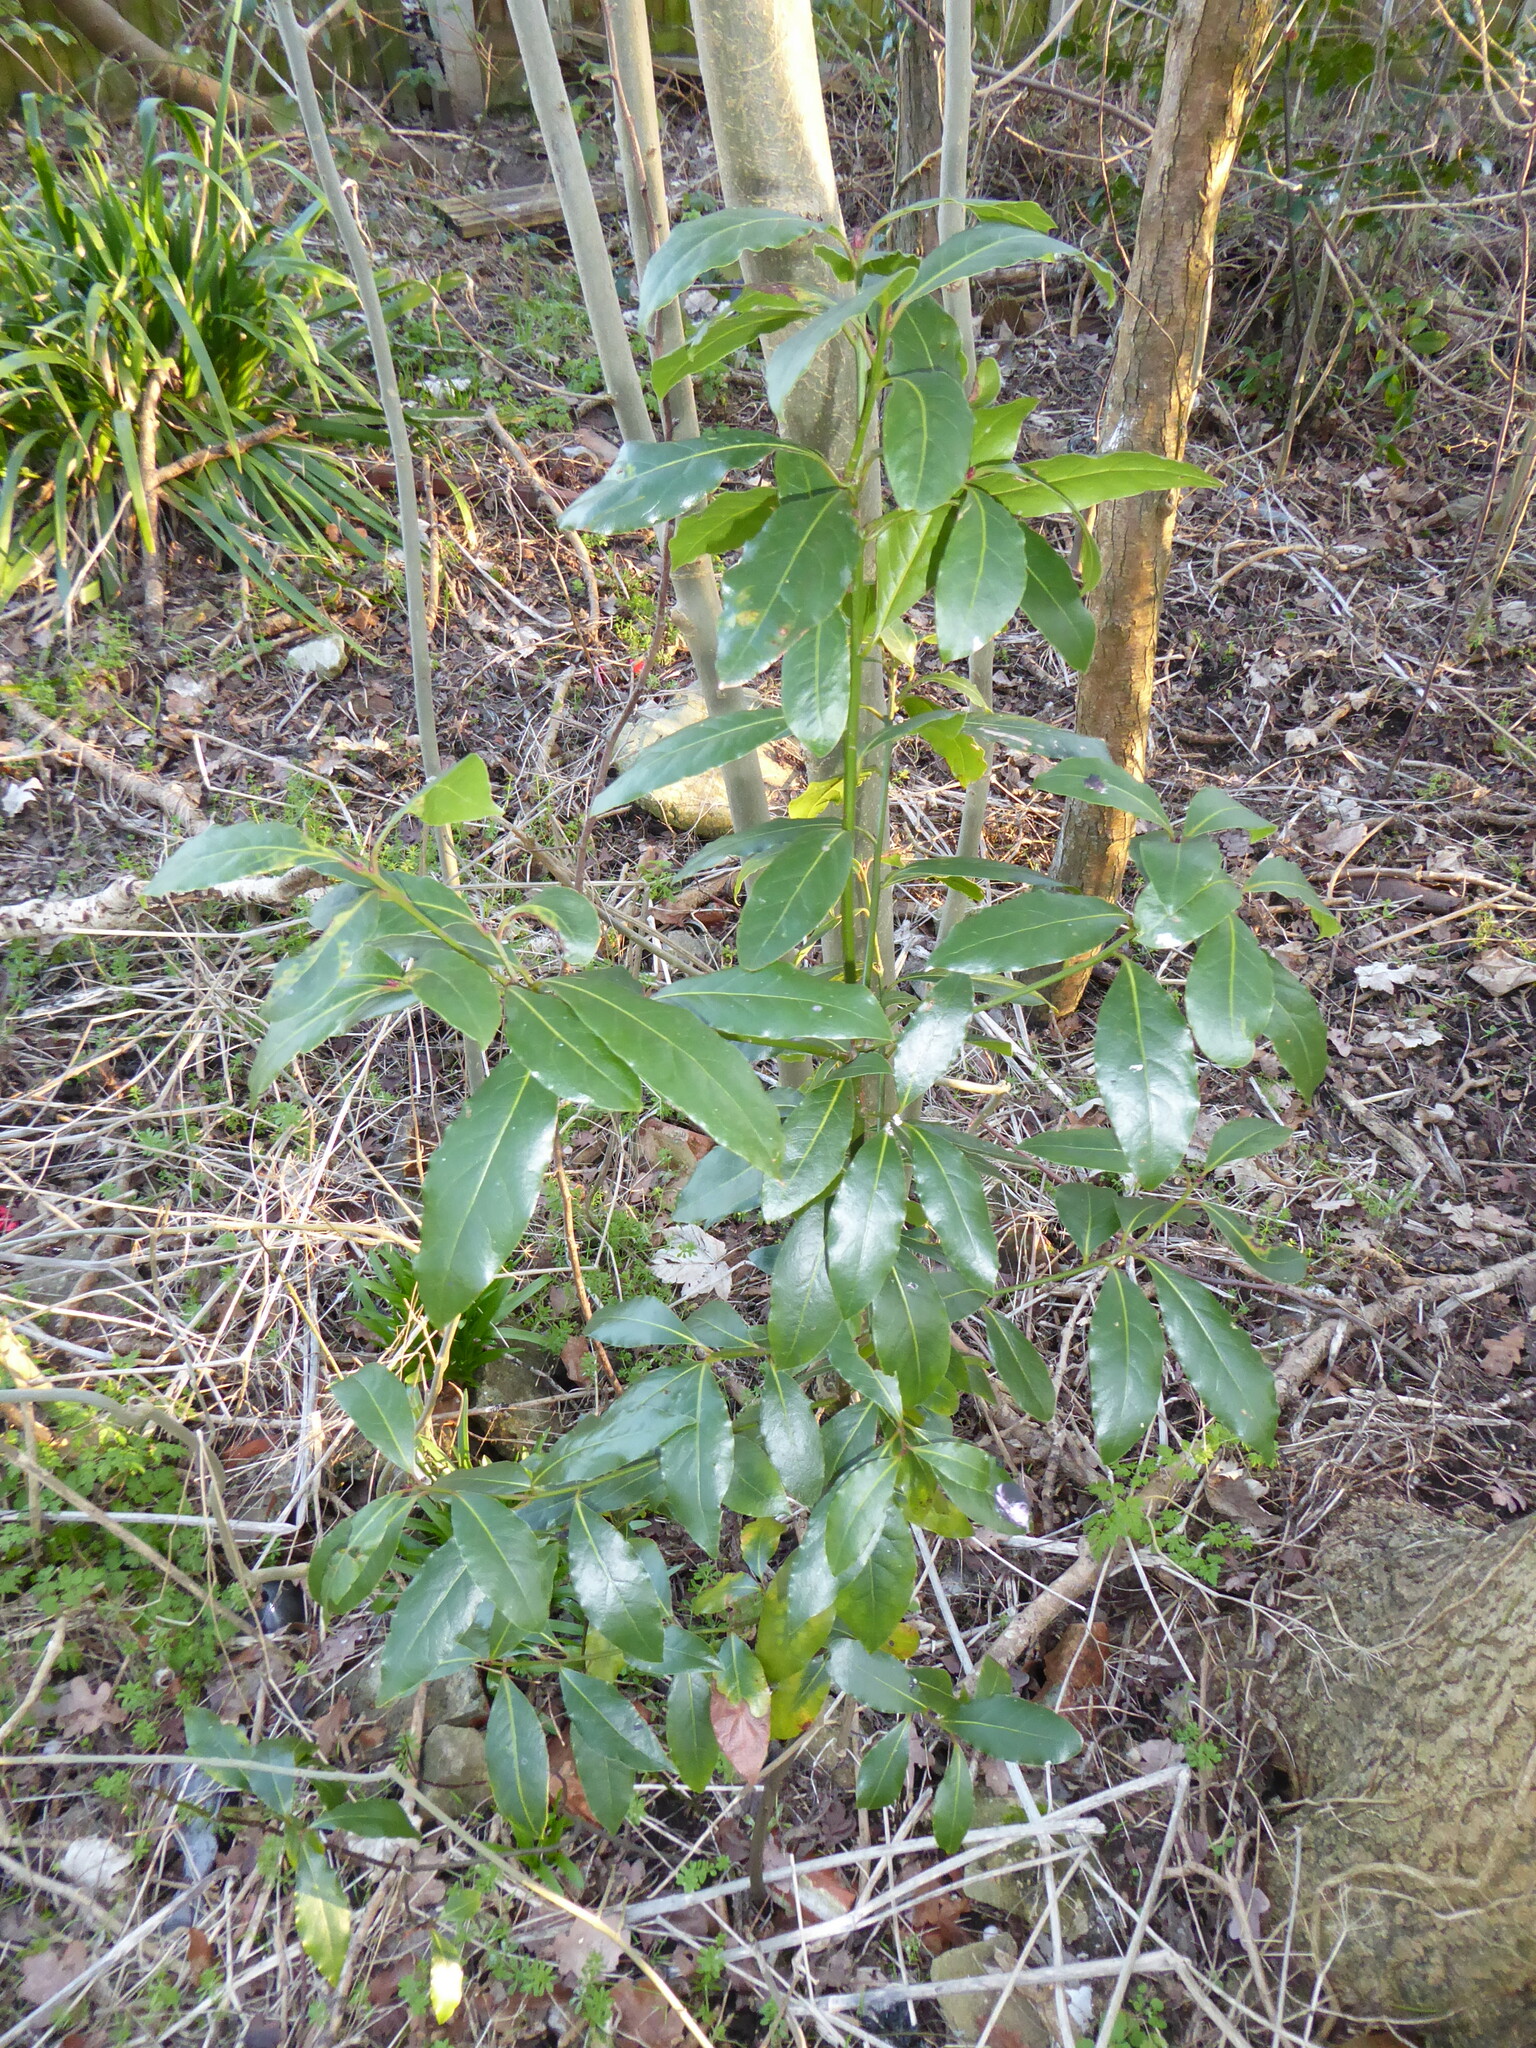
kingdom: Plantae
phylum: Tracheophyta
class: Magnoliopsida
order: Laurales
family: Lauraceae
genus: Laurus
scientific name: Laurus nobilis
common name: Bay
